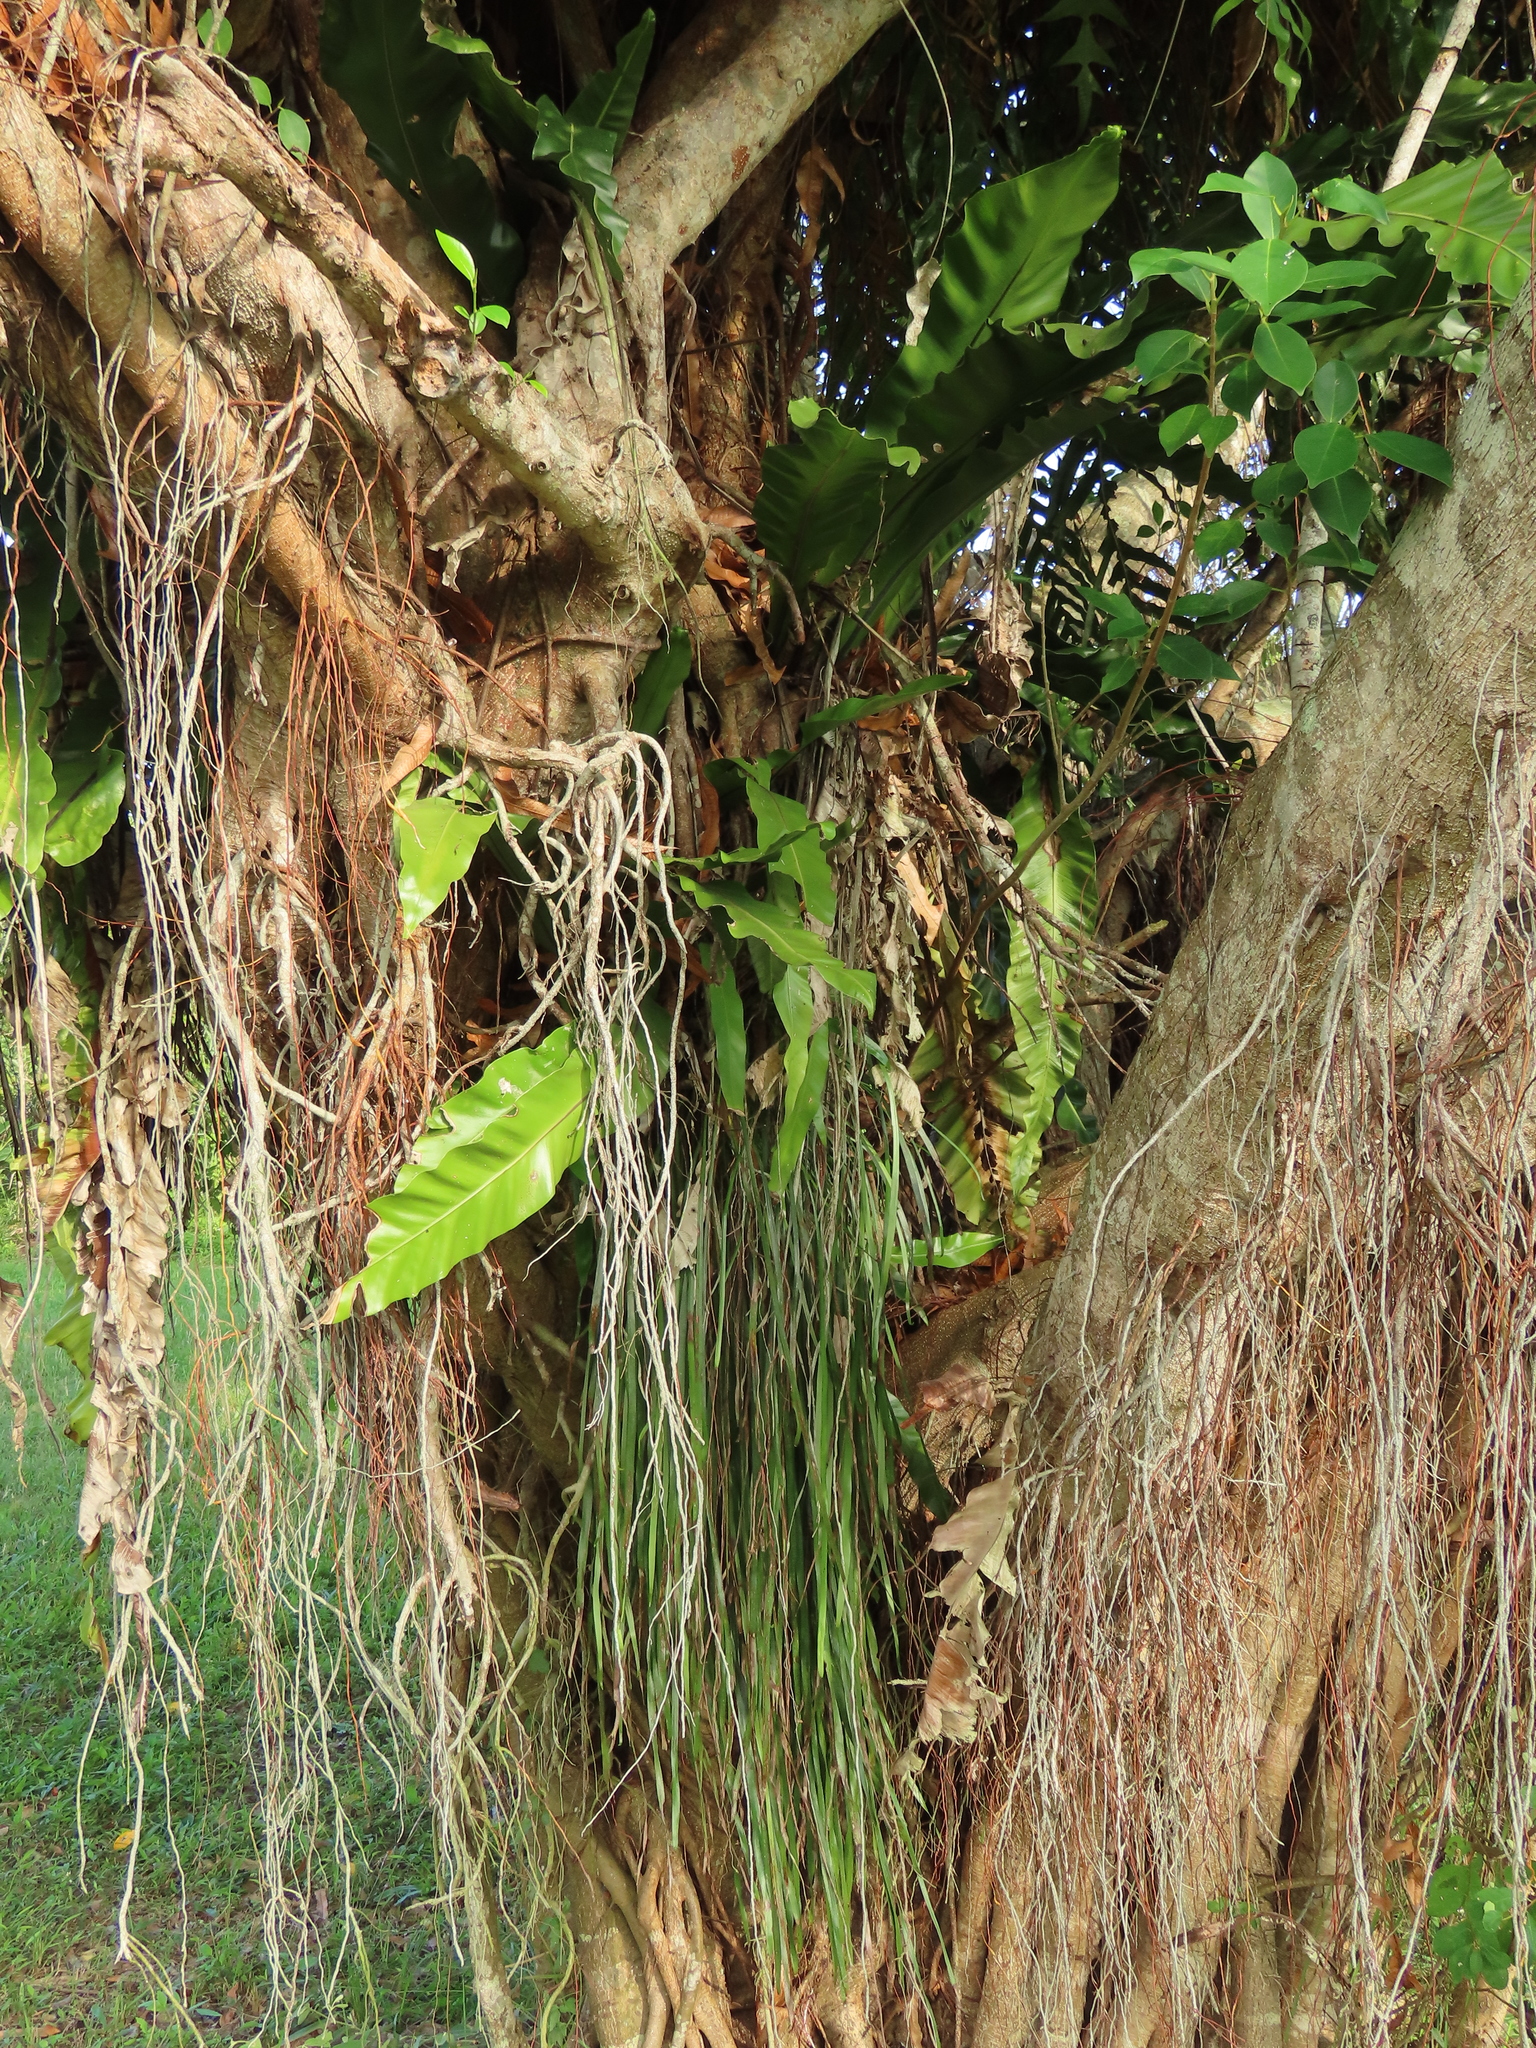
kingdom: Plantae
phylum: Tracheophyta
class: Polypodiopsida
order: Polypodiales
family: Aspleniaceae
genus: Asplenium
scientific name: Asplenium setoi
